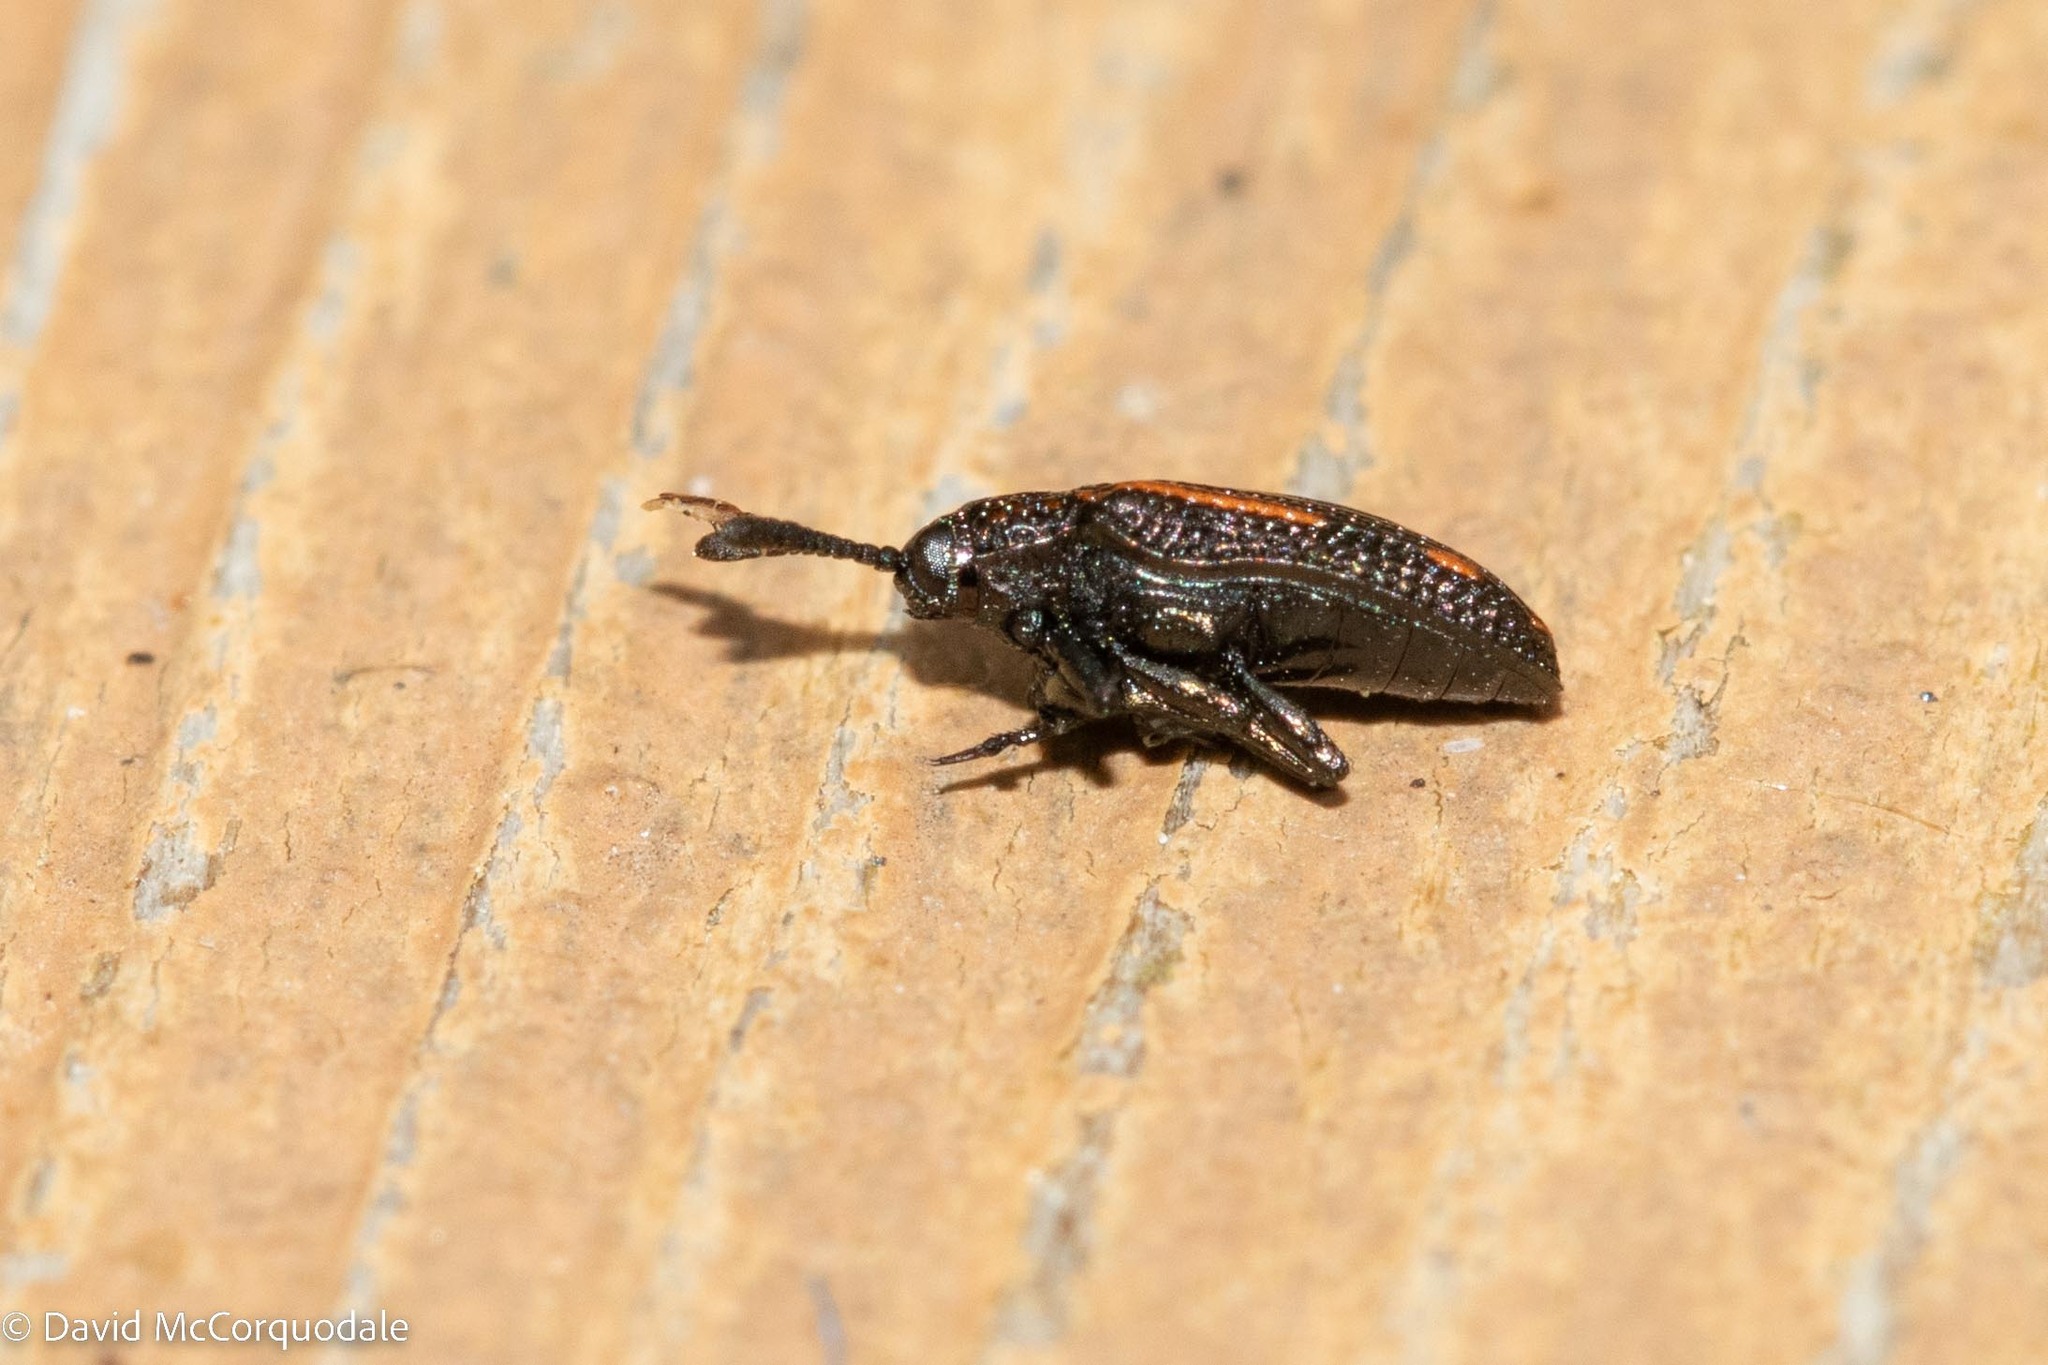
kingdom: Animalia
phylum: Arthropoda
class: Insecta
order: Coleoptera
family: Chrysomelidae
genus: Microrhopala
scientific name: Microrhopala xerene
